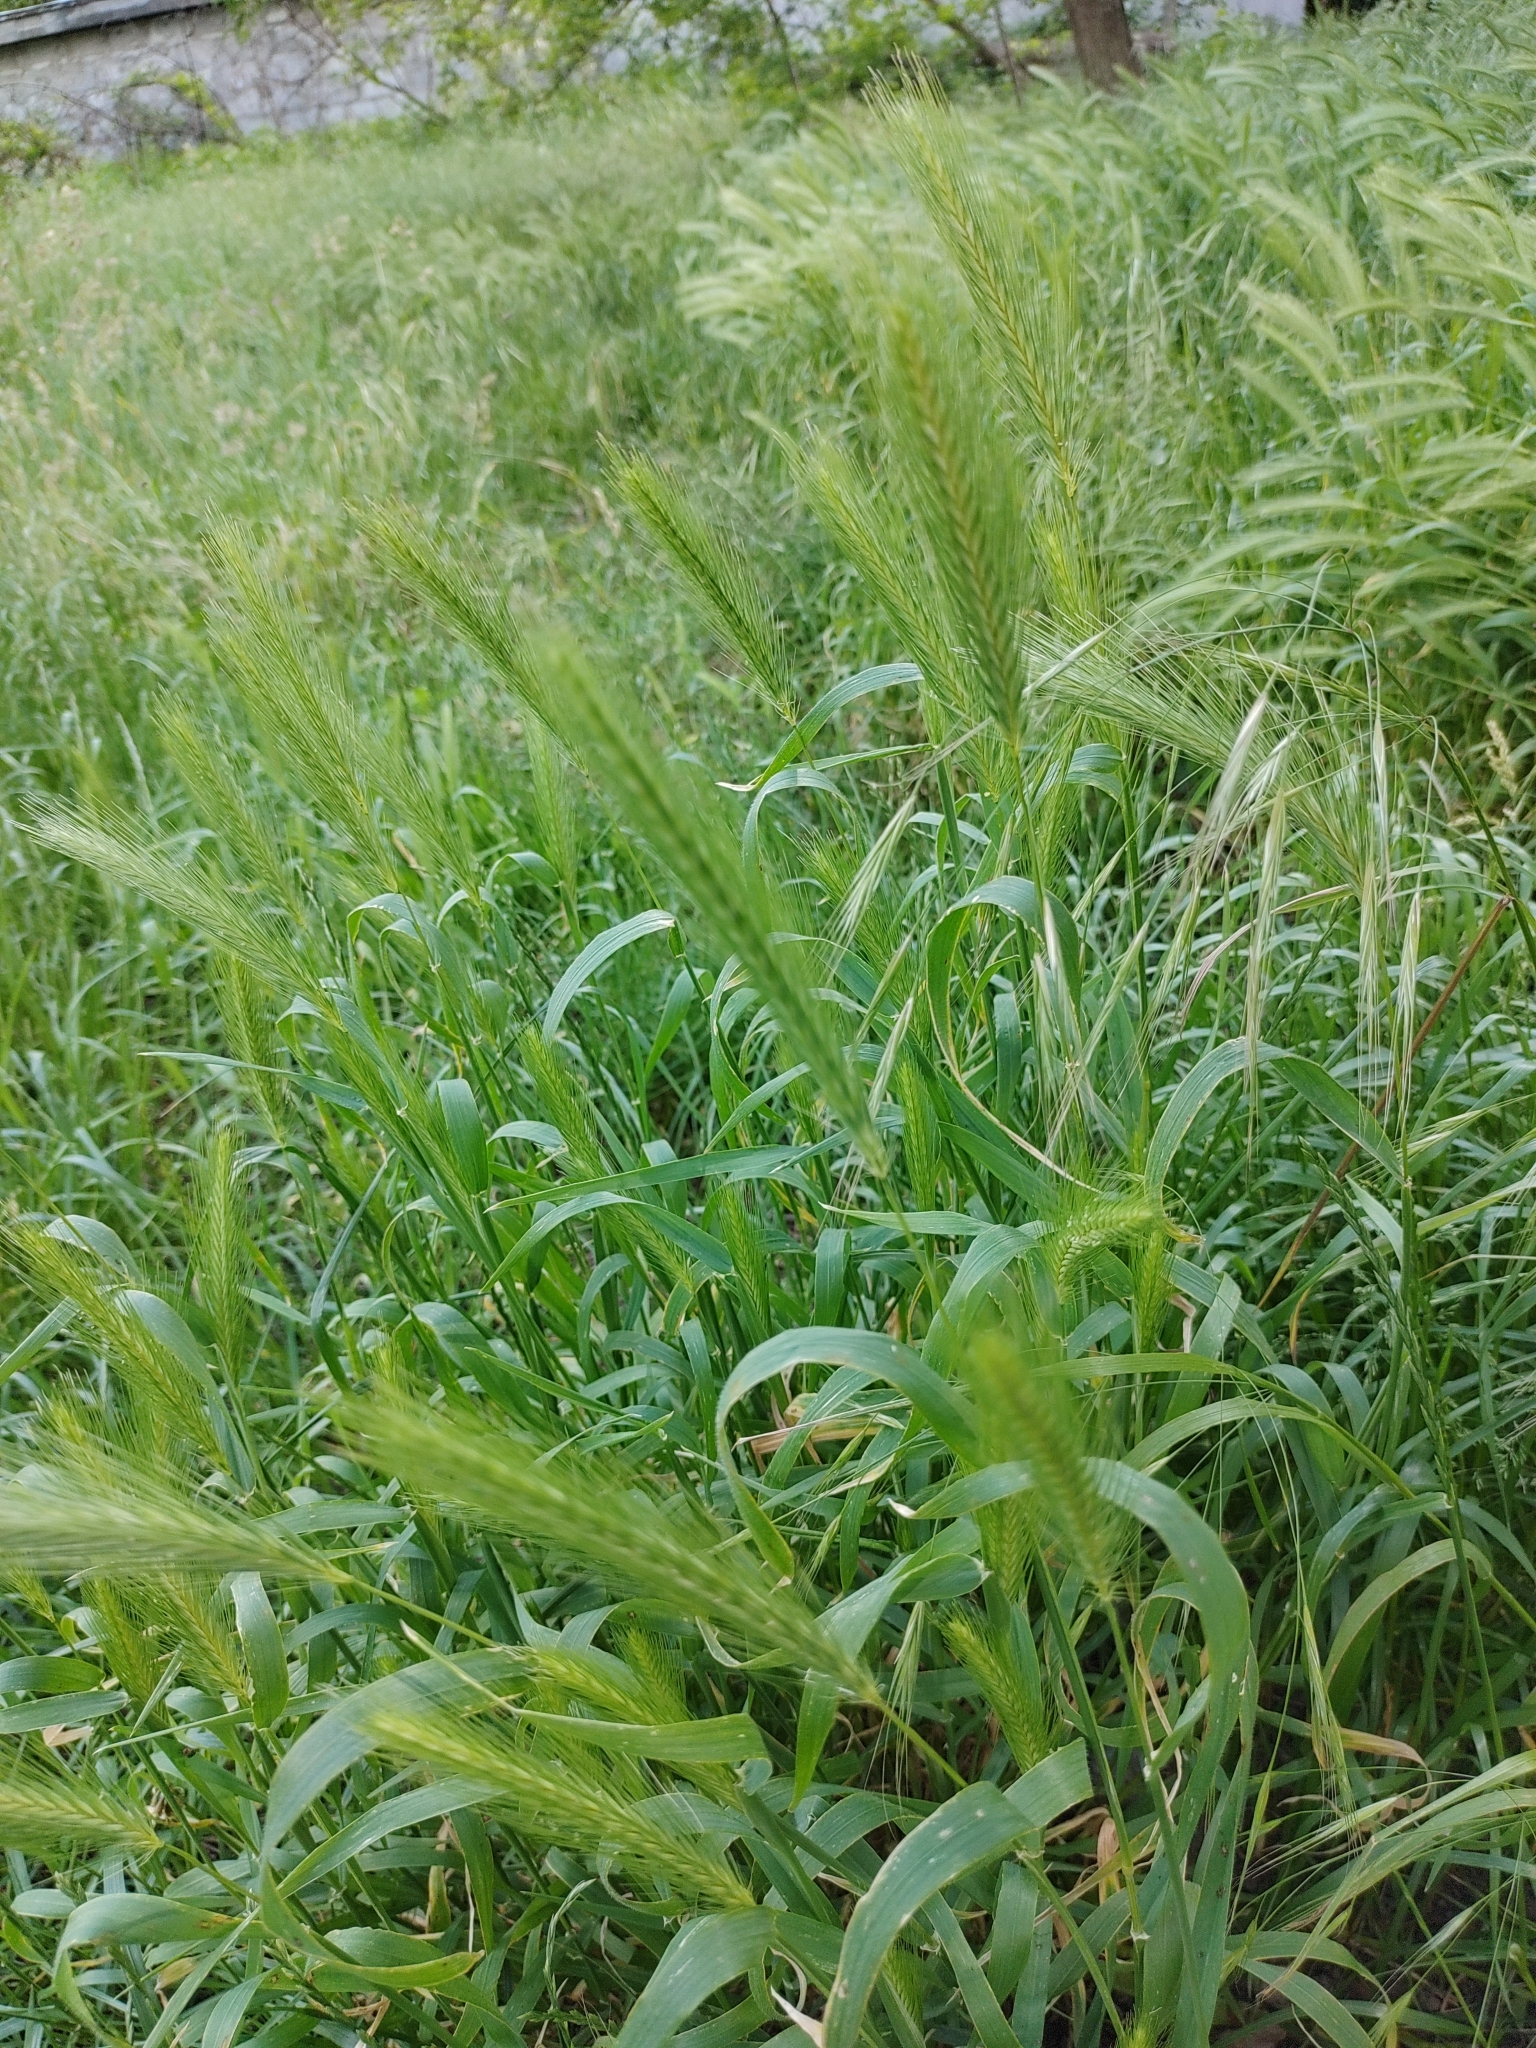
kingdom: Plantae
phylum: Tracheophyta
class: Liliopsida
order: Poales
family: Poaceae
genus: Hordeum
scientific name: Hordeum murinum
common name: Wall barley
